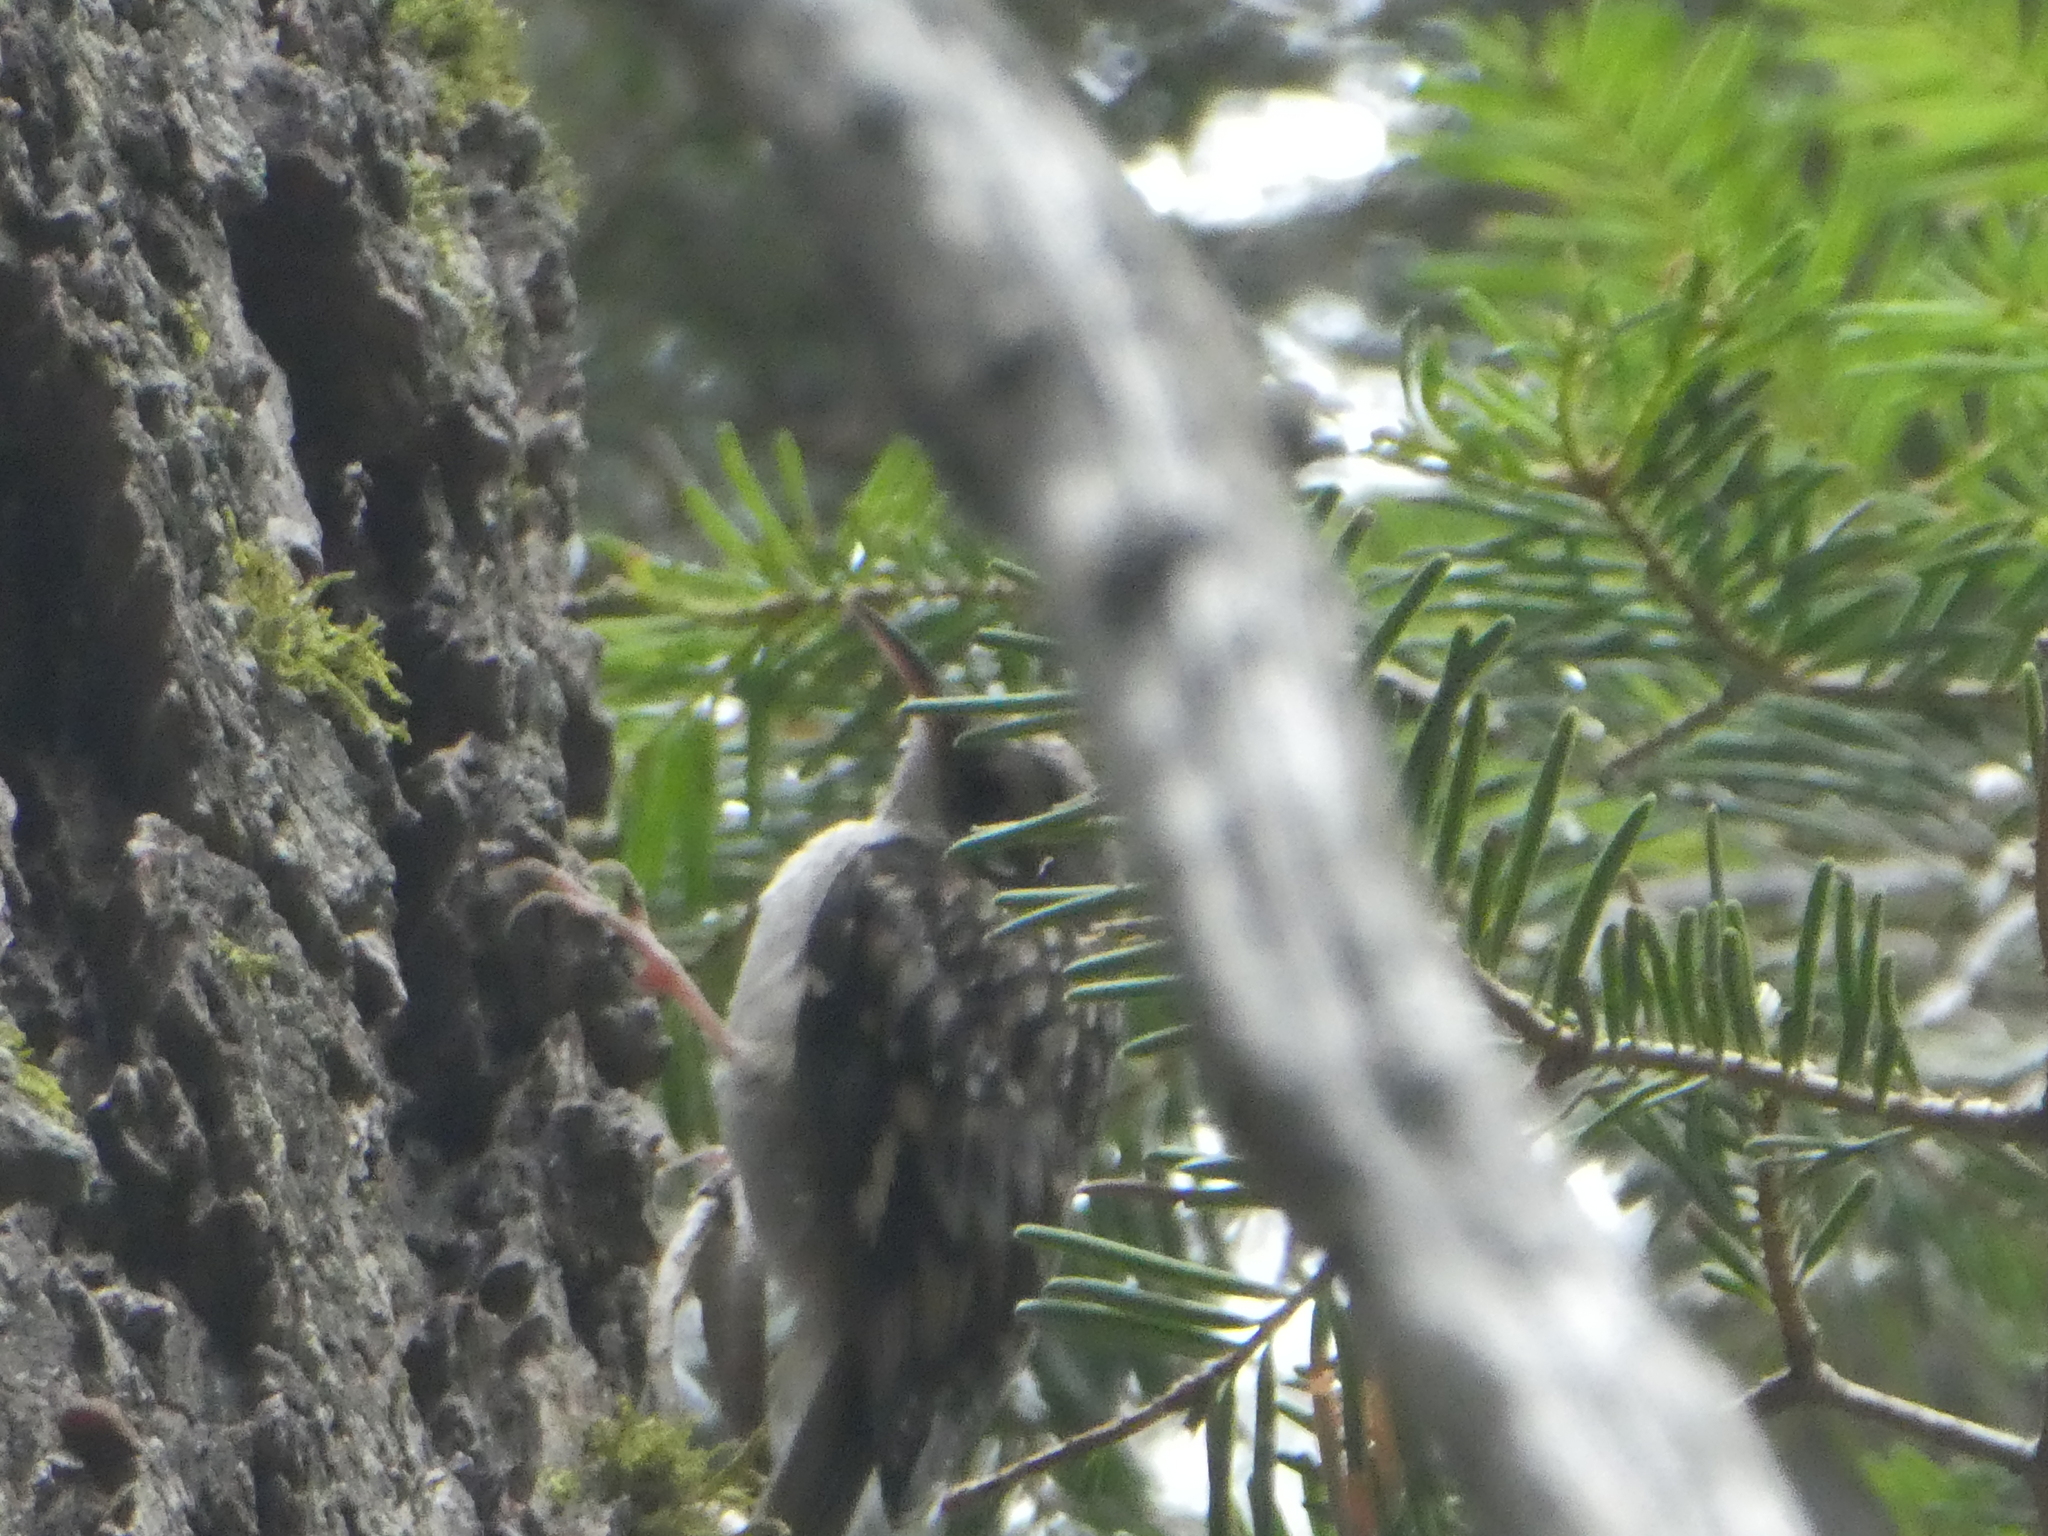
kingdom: Animalia
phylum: Chordata
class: Aves
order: Passeriformes
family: Certhiidae
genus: Certhia
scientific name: Certhia americana
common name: Brown creeper
